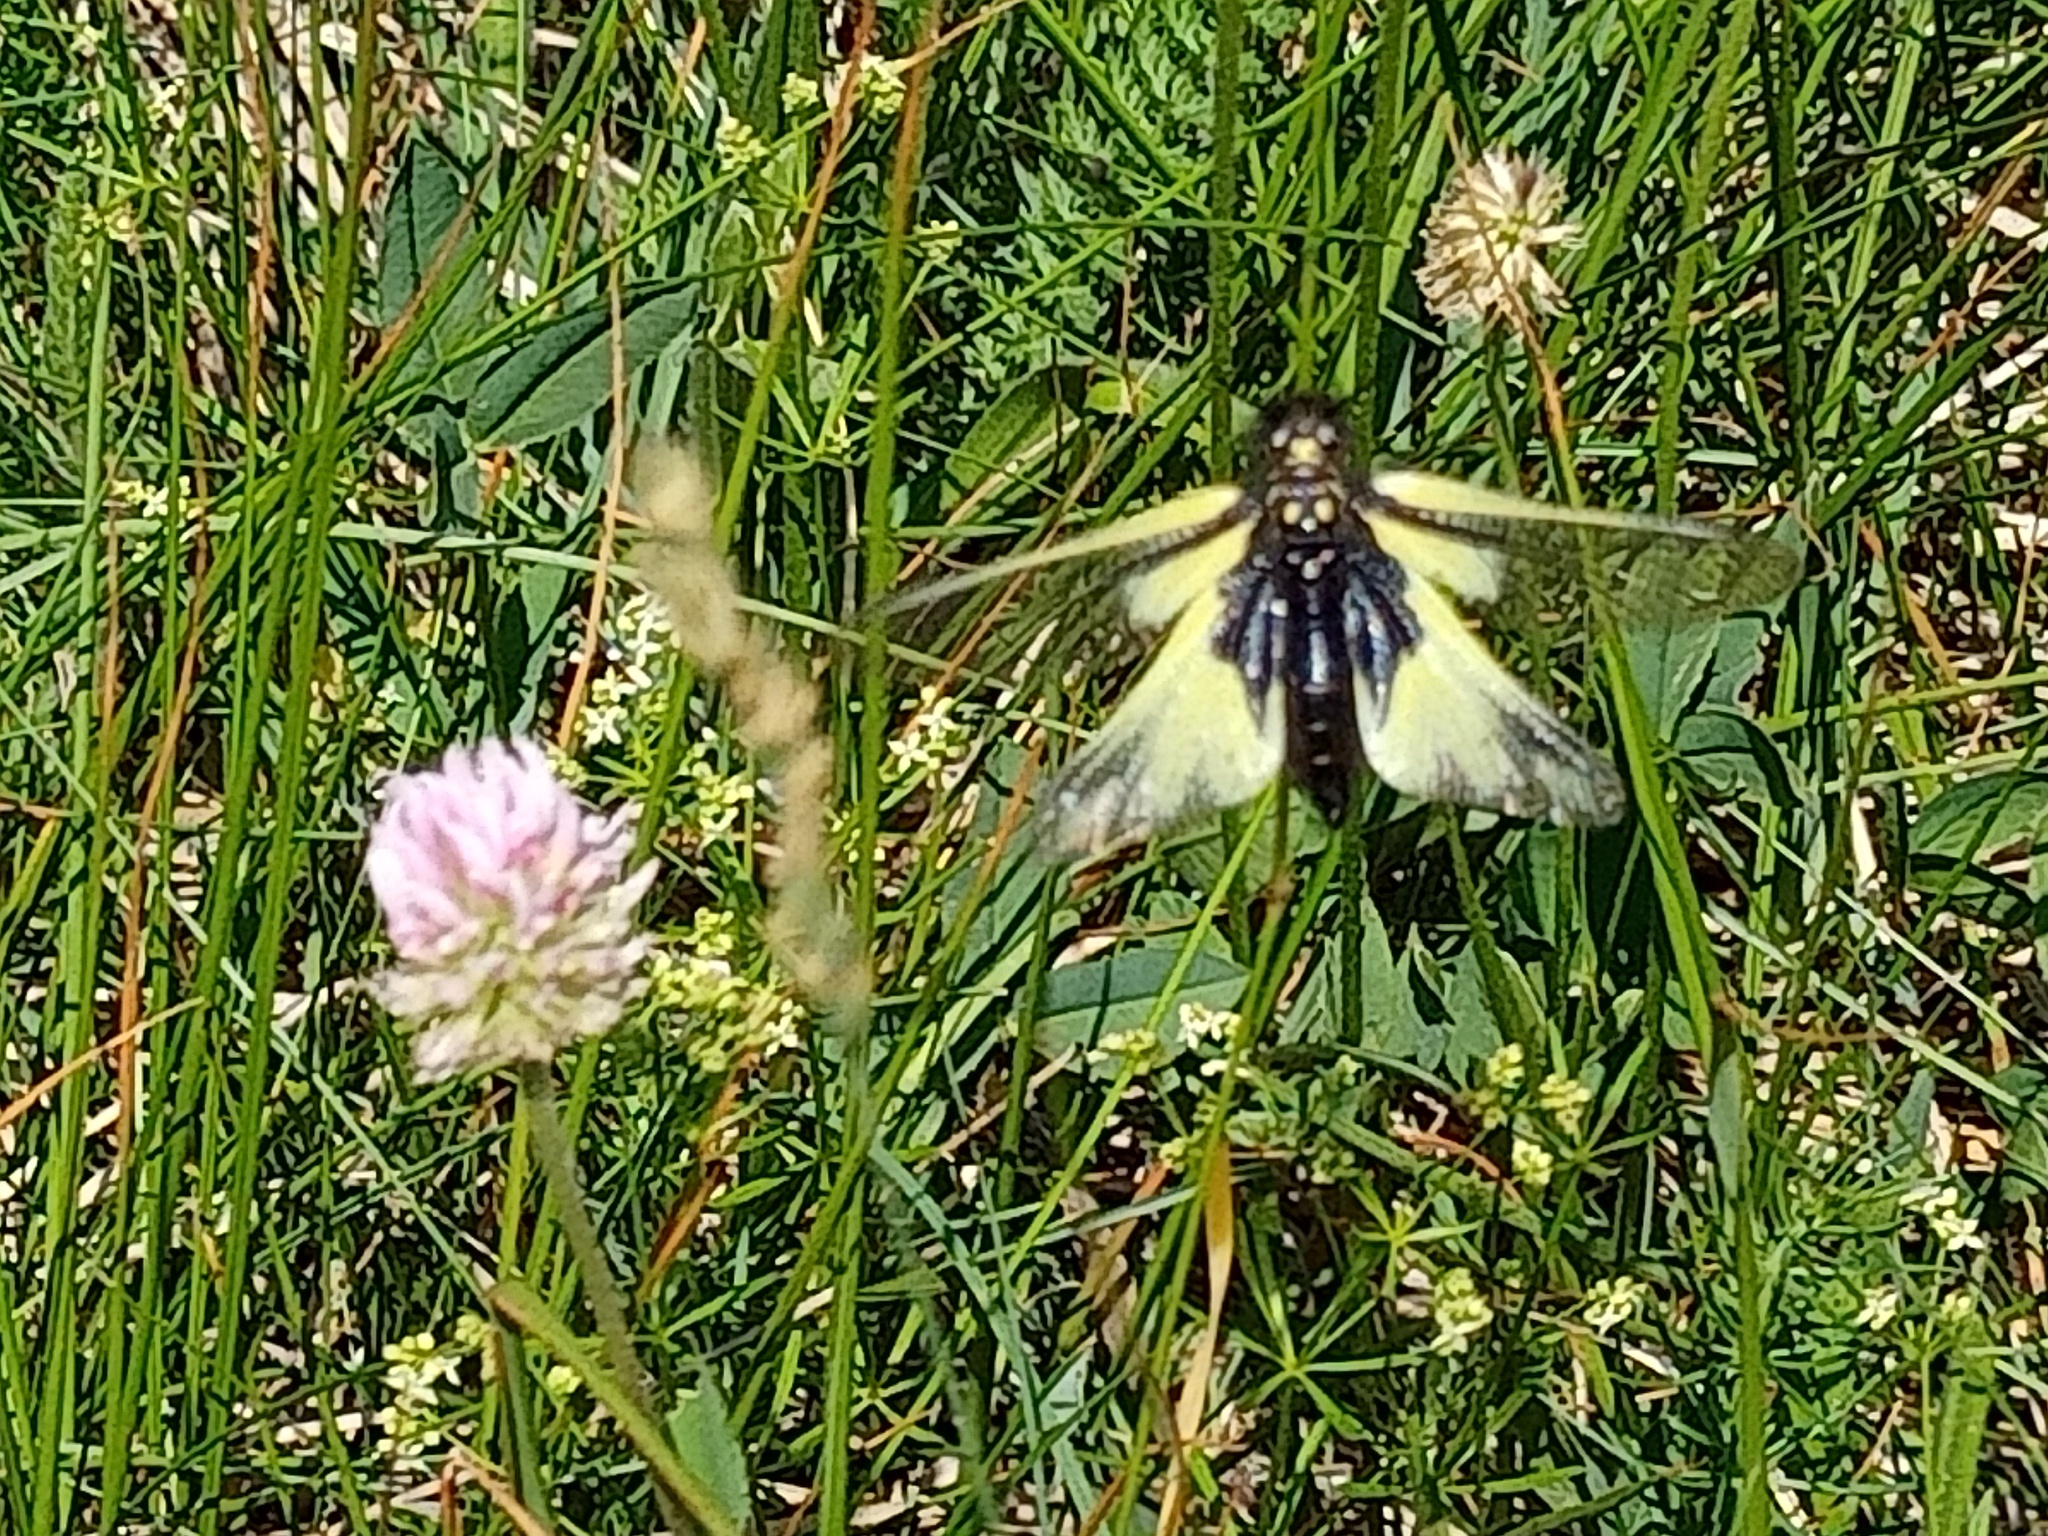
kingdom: Animalia
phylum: Arthropoda
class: Insecta
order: Neuroptera
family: Ascalaphidae
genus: Libelloides
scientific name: Libelloides coccajus
